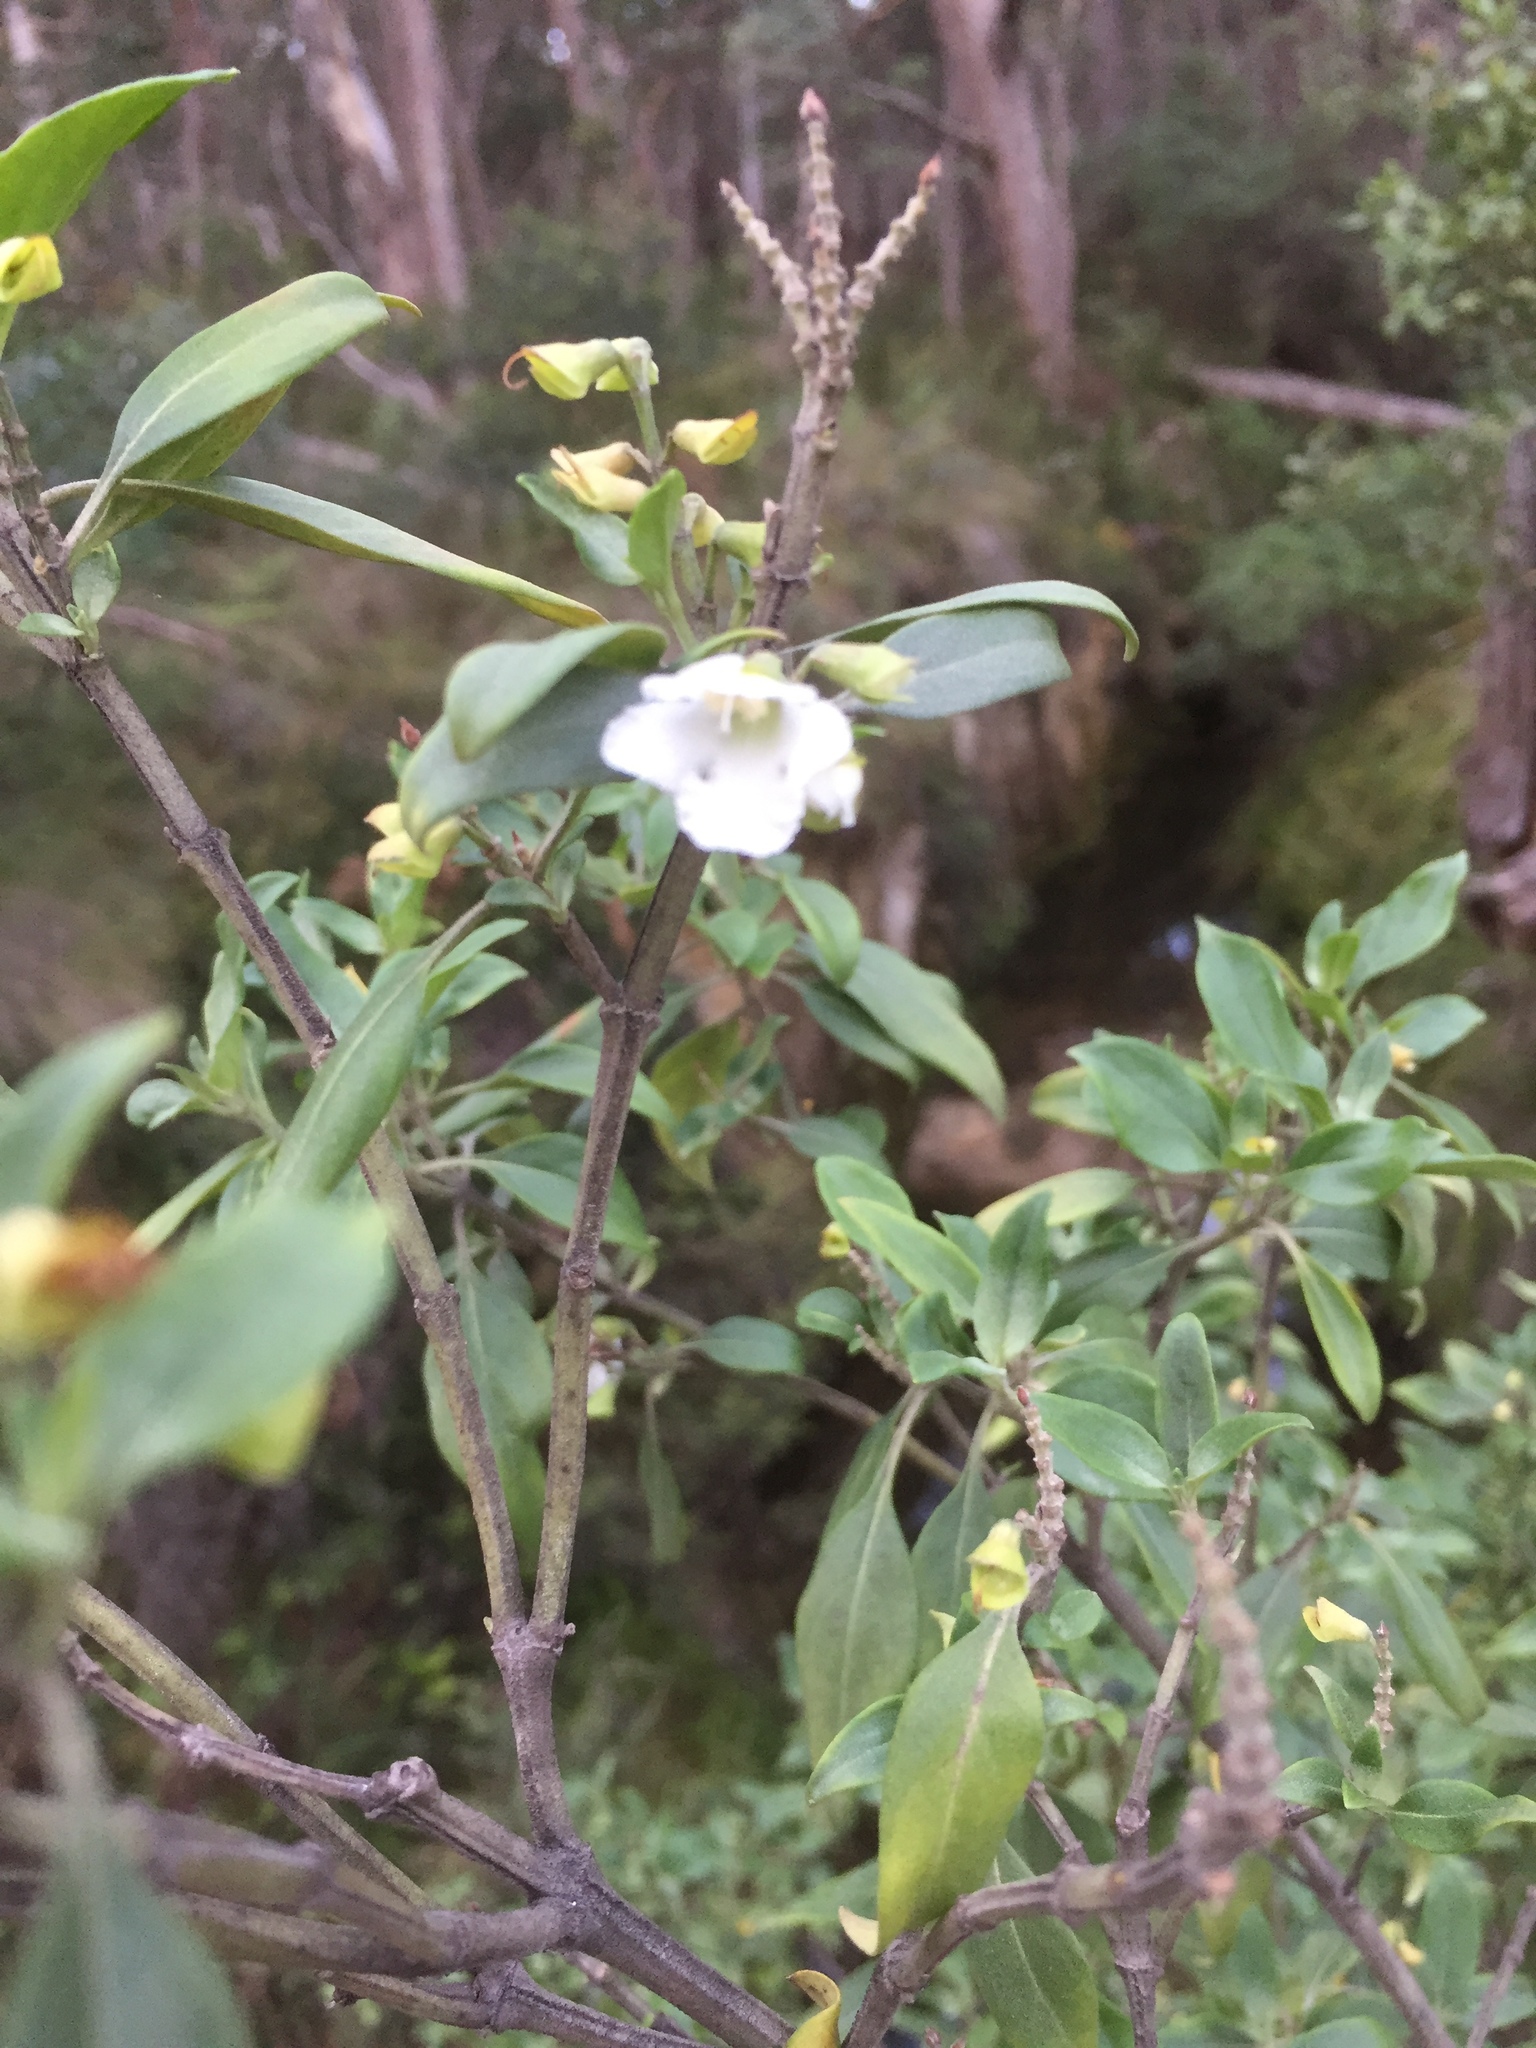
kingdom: Plantae
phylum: Tracheophyta
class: Magnoliopsida
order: Lamiales
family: Lamiaceae
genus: Prostanthera
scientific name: Prostanthera petraea
